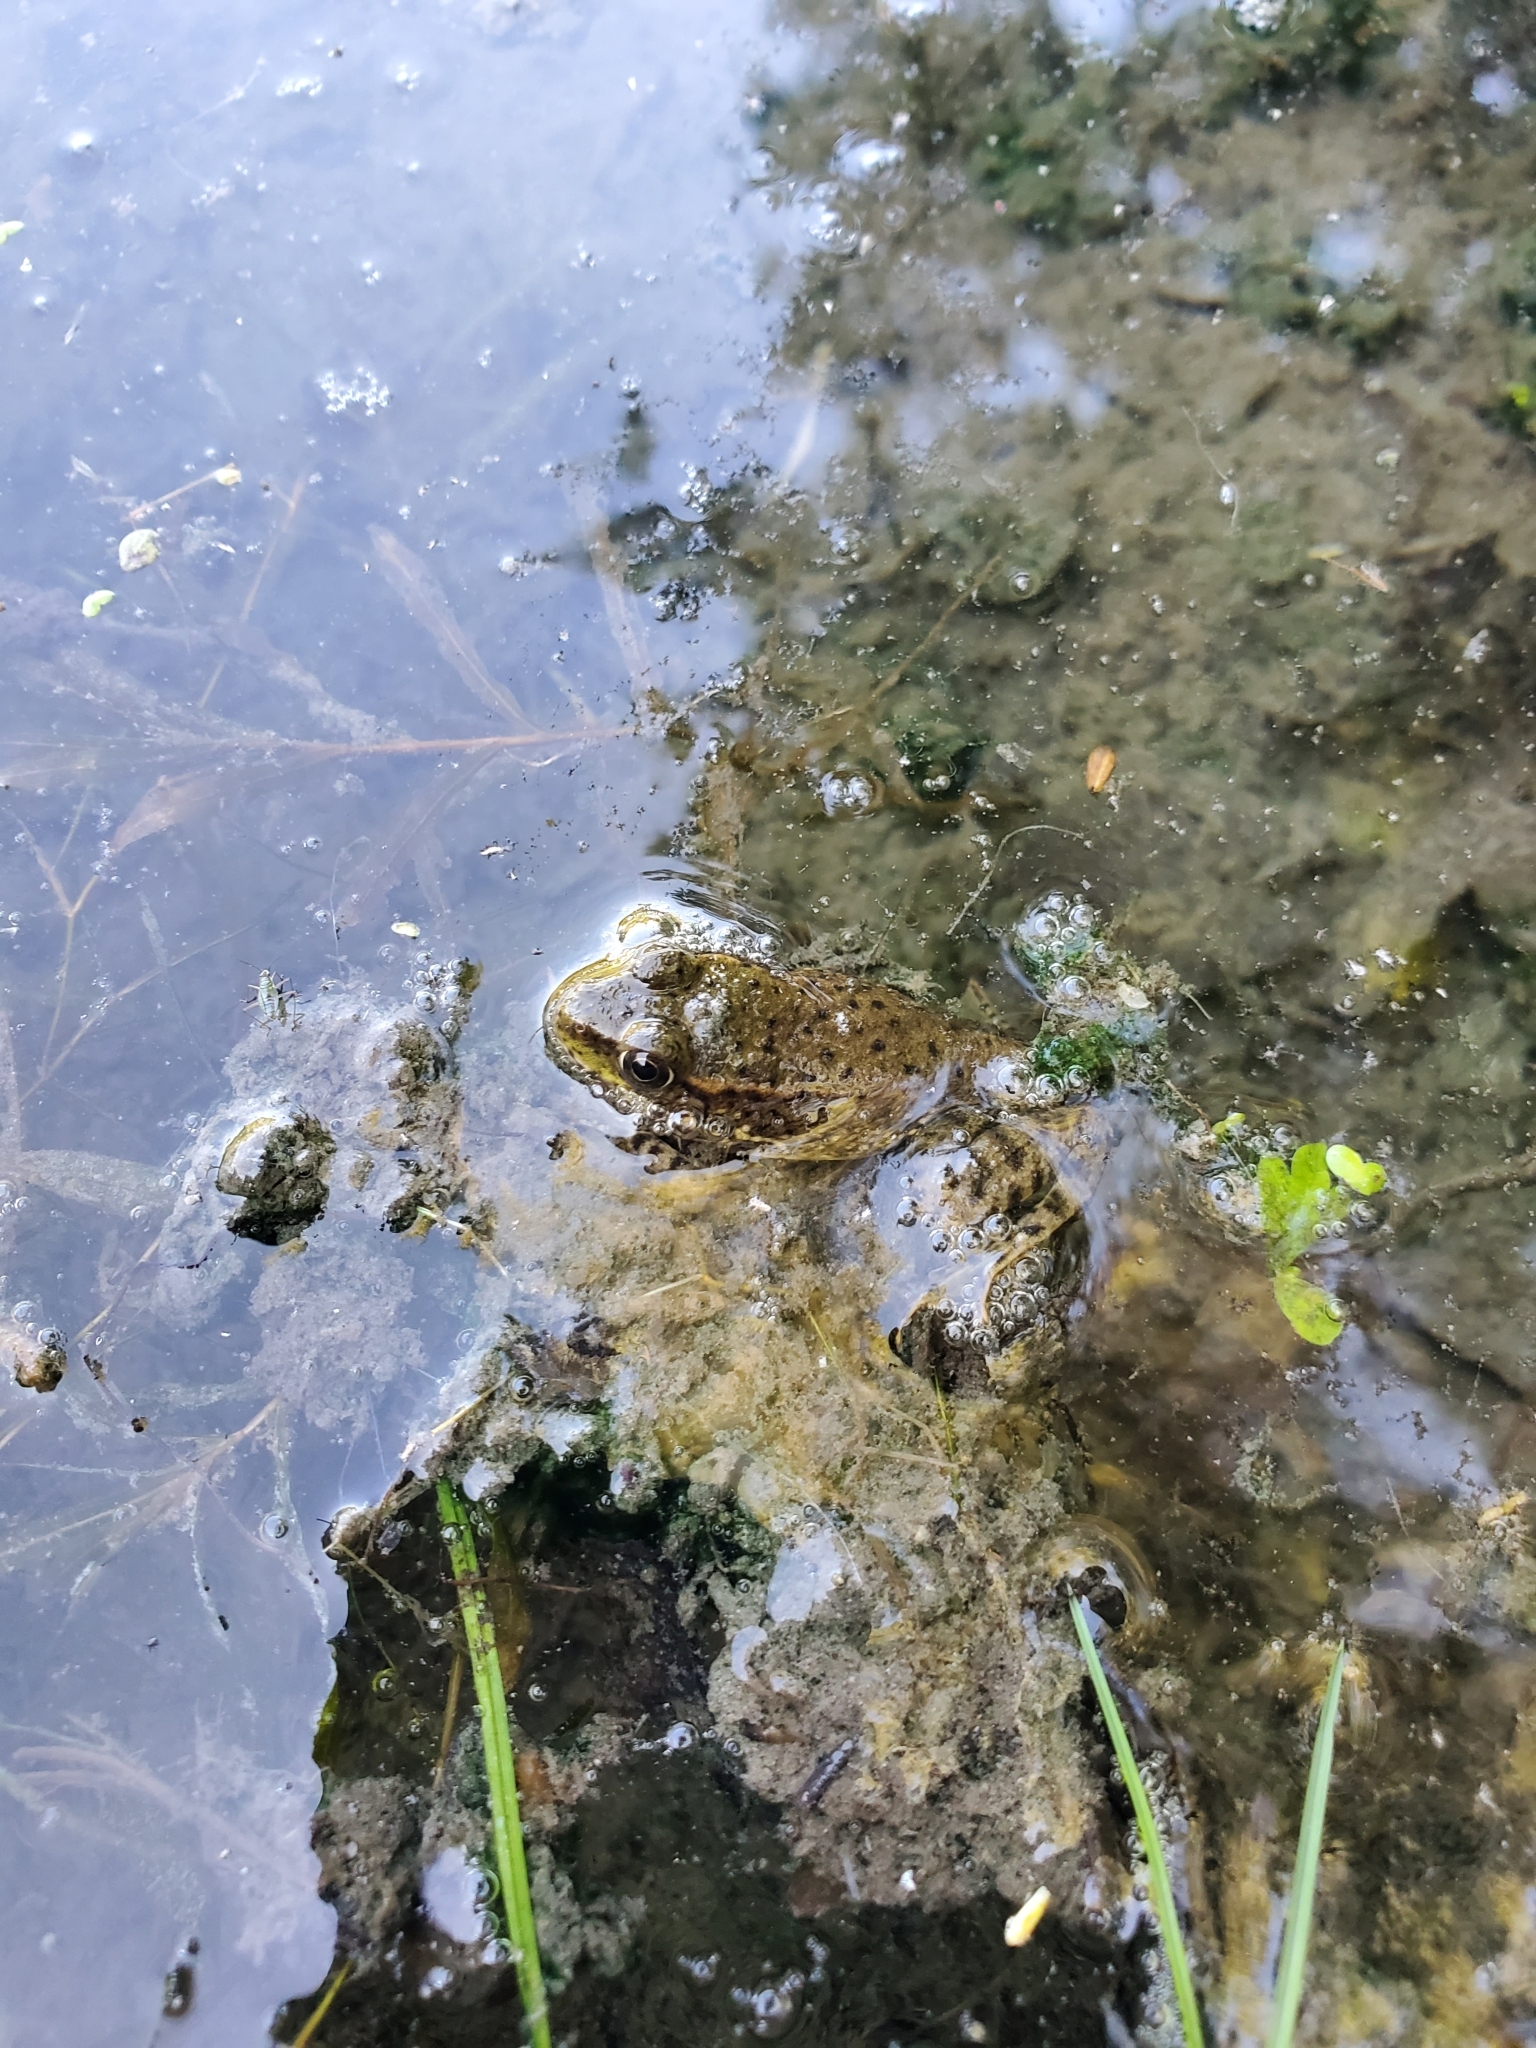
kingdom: Animalia
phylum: Chordata
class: Amphibia
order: Anura
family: Ranidae
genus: Lithobates
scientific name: Lithobates clamitans
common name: Green frog
